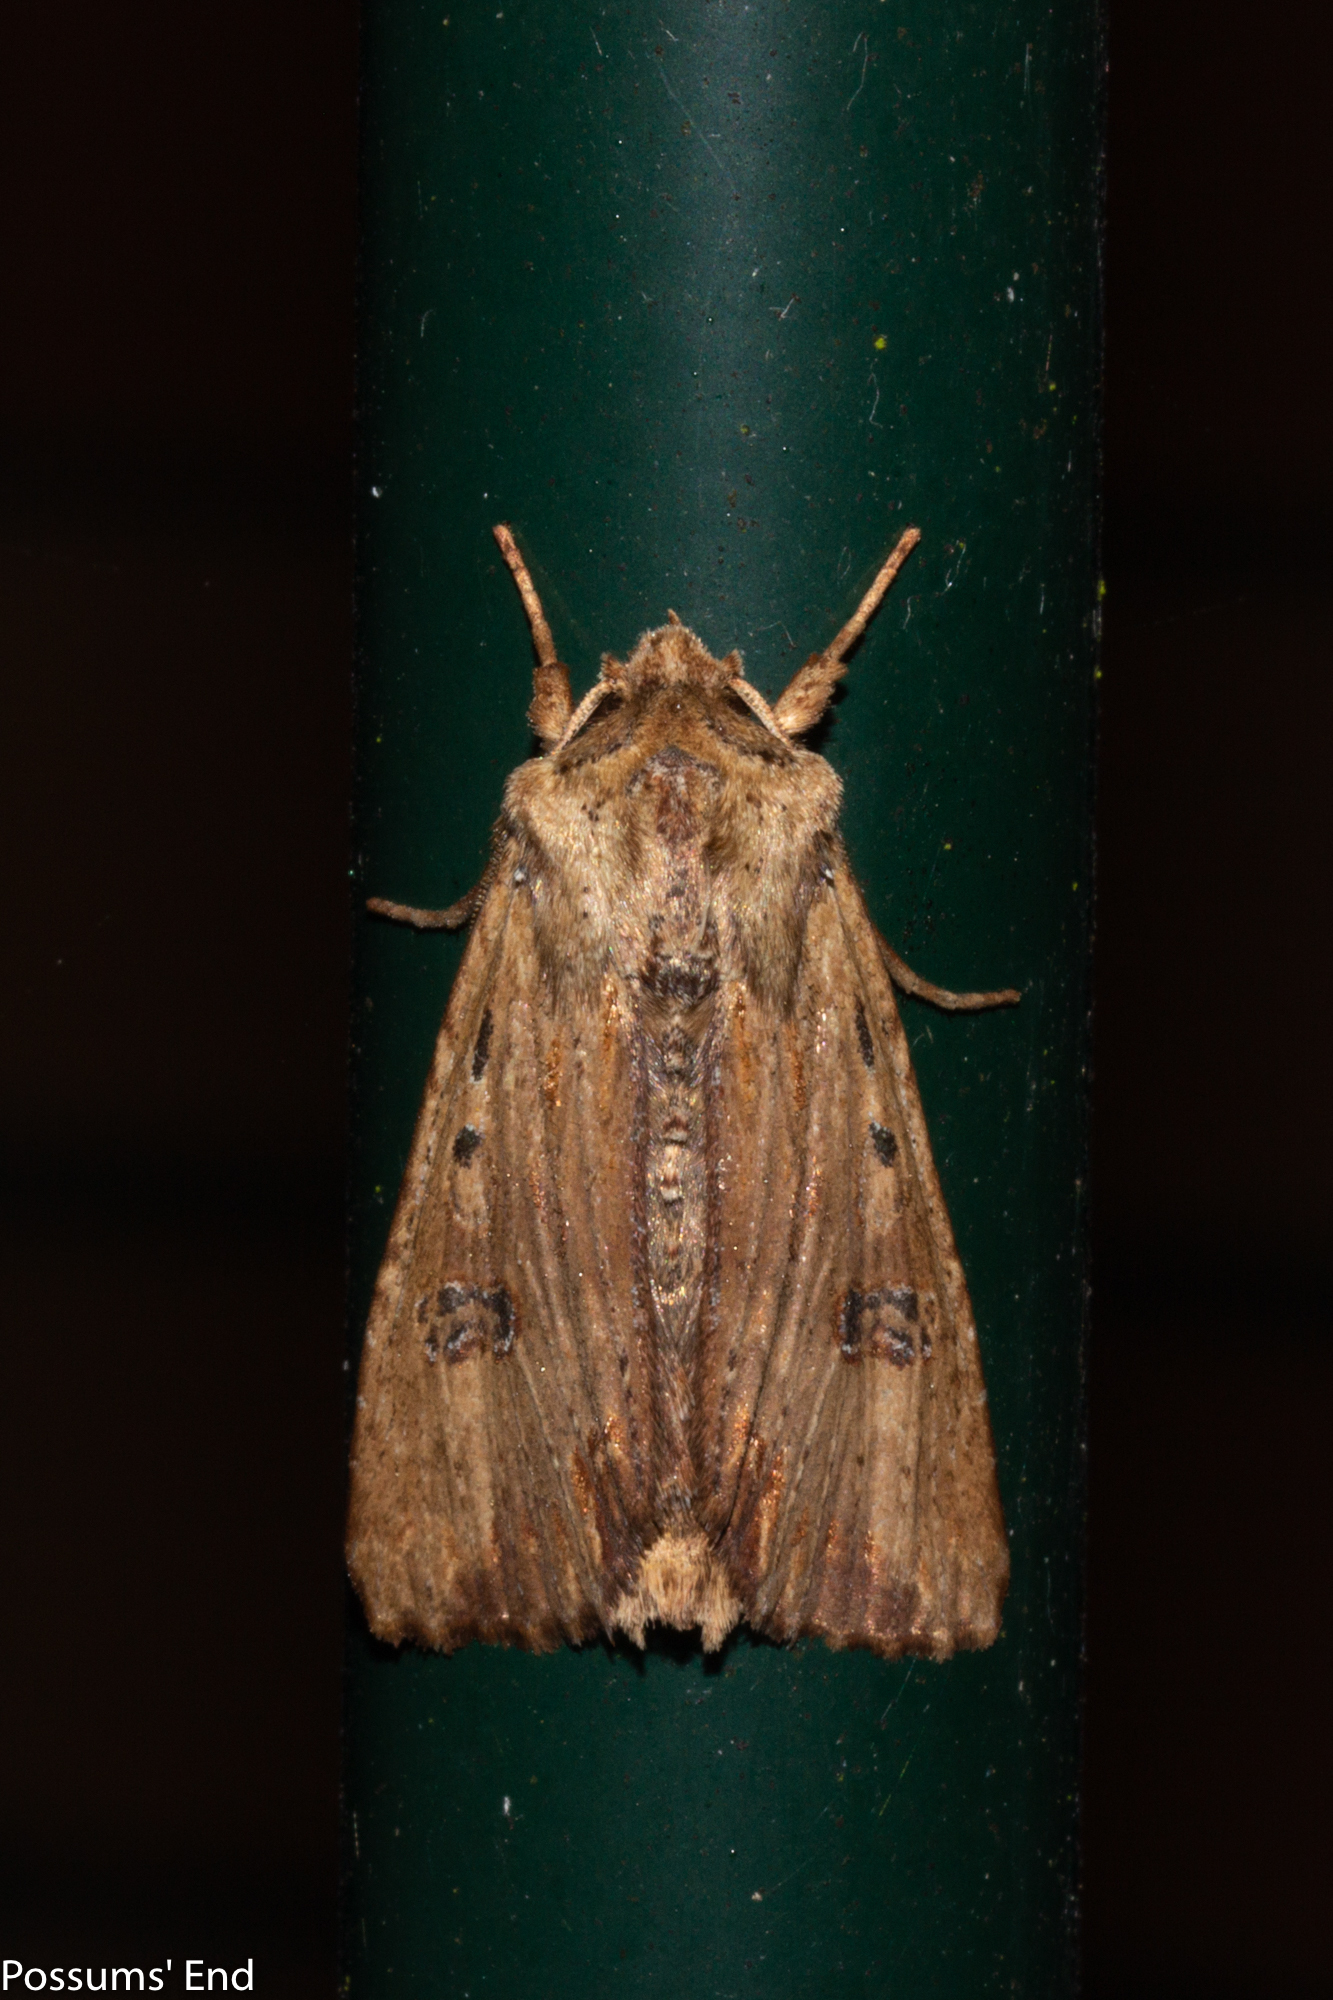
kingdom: Animalia
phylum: Arthropoda
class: Insecta
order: Lepidoptera
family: Noctuidae
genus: Ichneutica
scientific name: Ichneutica
